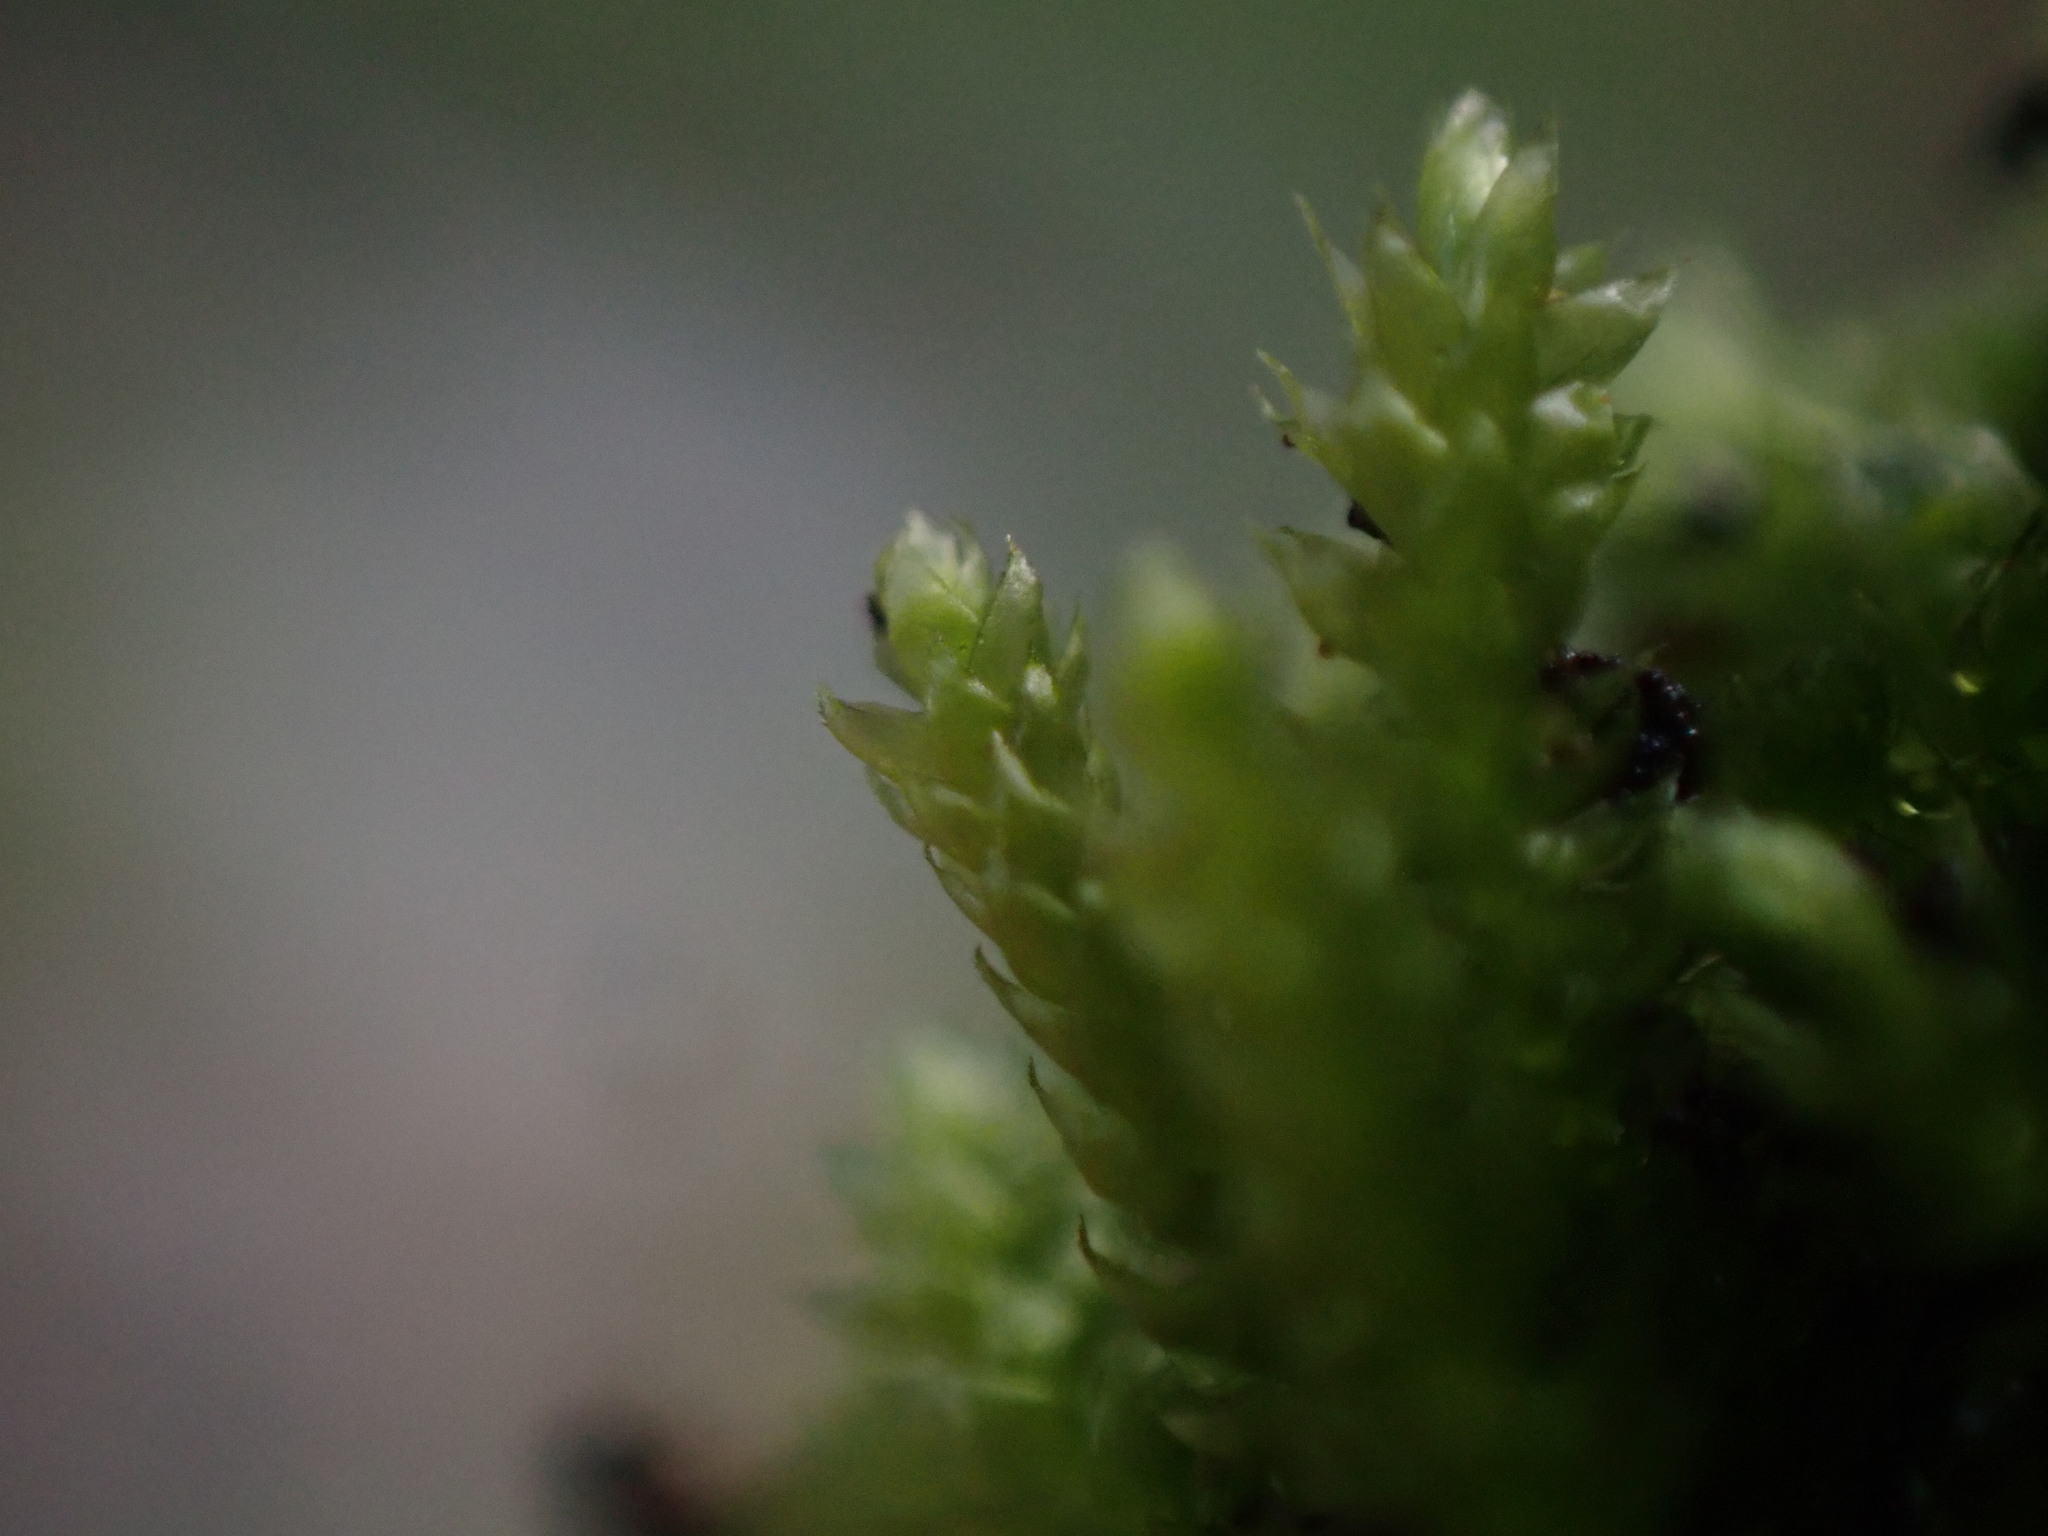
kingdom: Plantae
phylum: Bryophyta
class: Bryopsida
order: Hypnales
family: Brachytheciaceae
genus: Scleropodium
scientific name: Scleropodium touretii
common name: Glass-wort feather-moss
